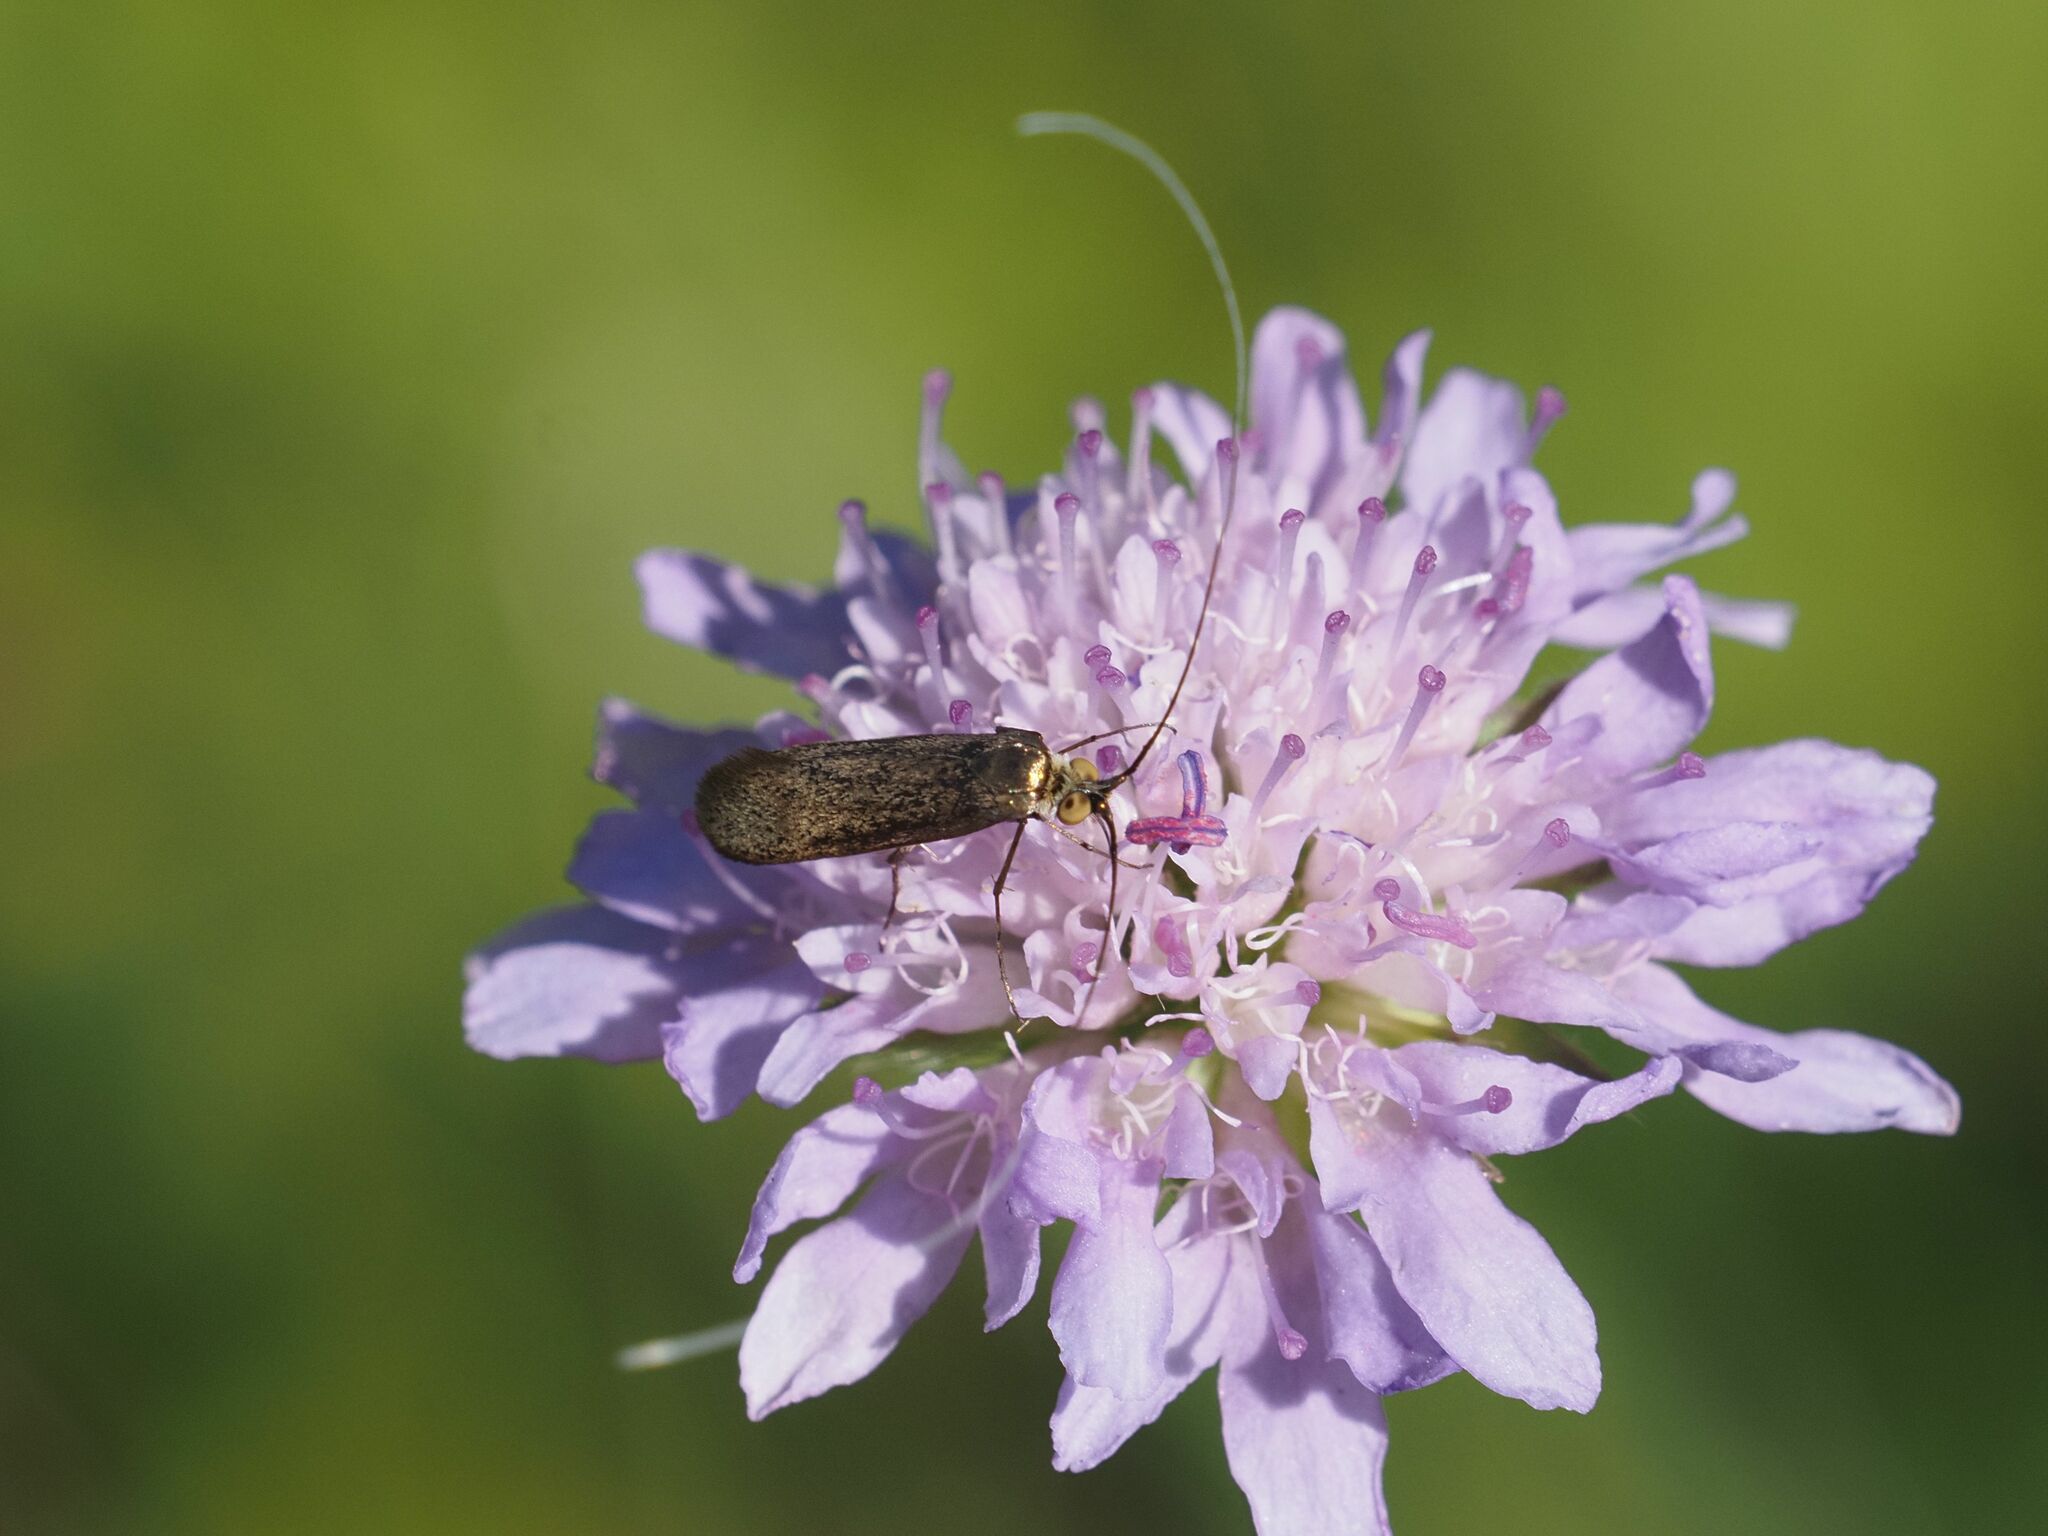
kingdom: Animalia
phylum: Arthropoda
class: Insecta
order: Lepidoptera
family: Adelidae
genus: Nemophora
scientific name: Nemophora metallica
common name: Brassy long-horn
